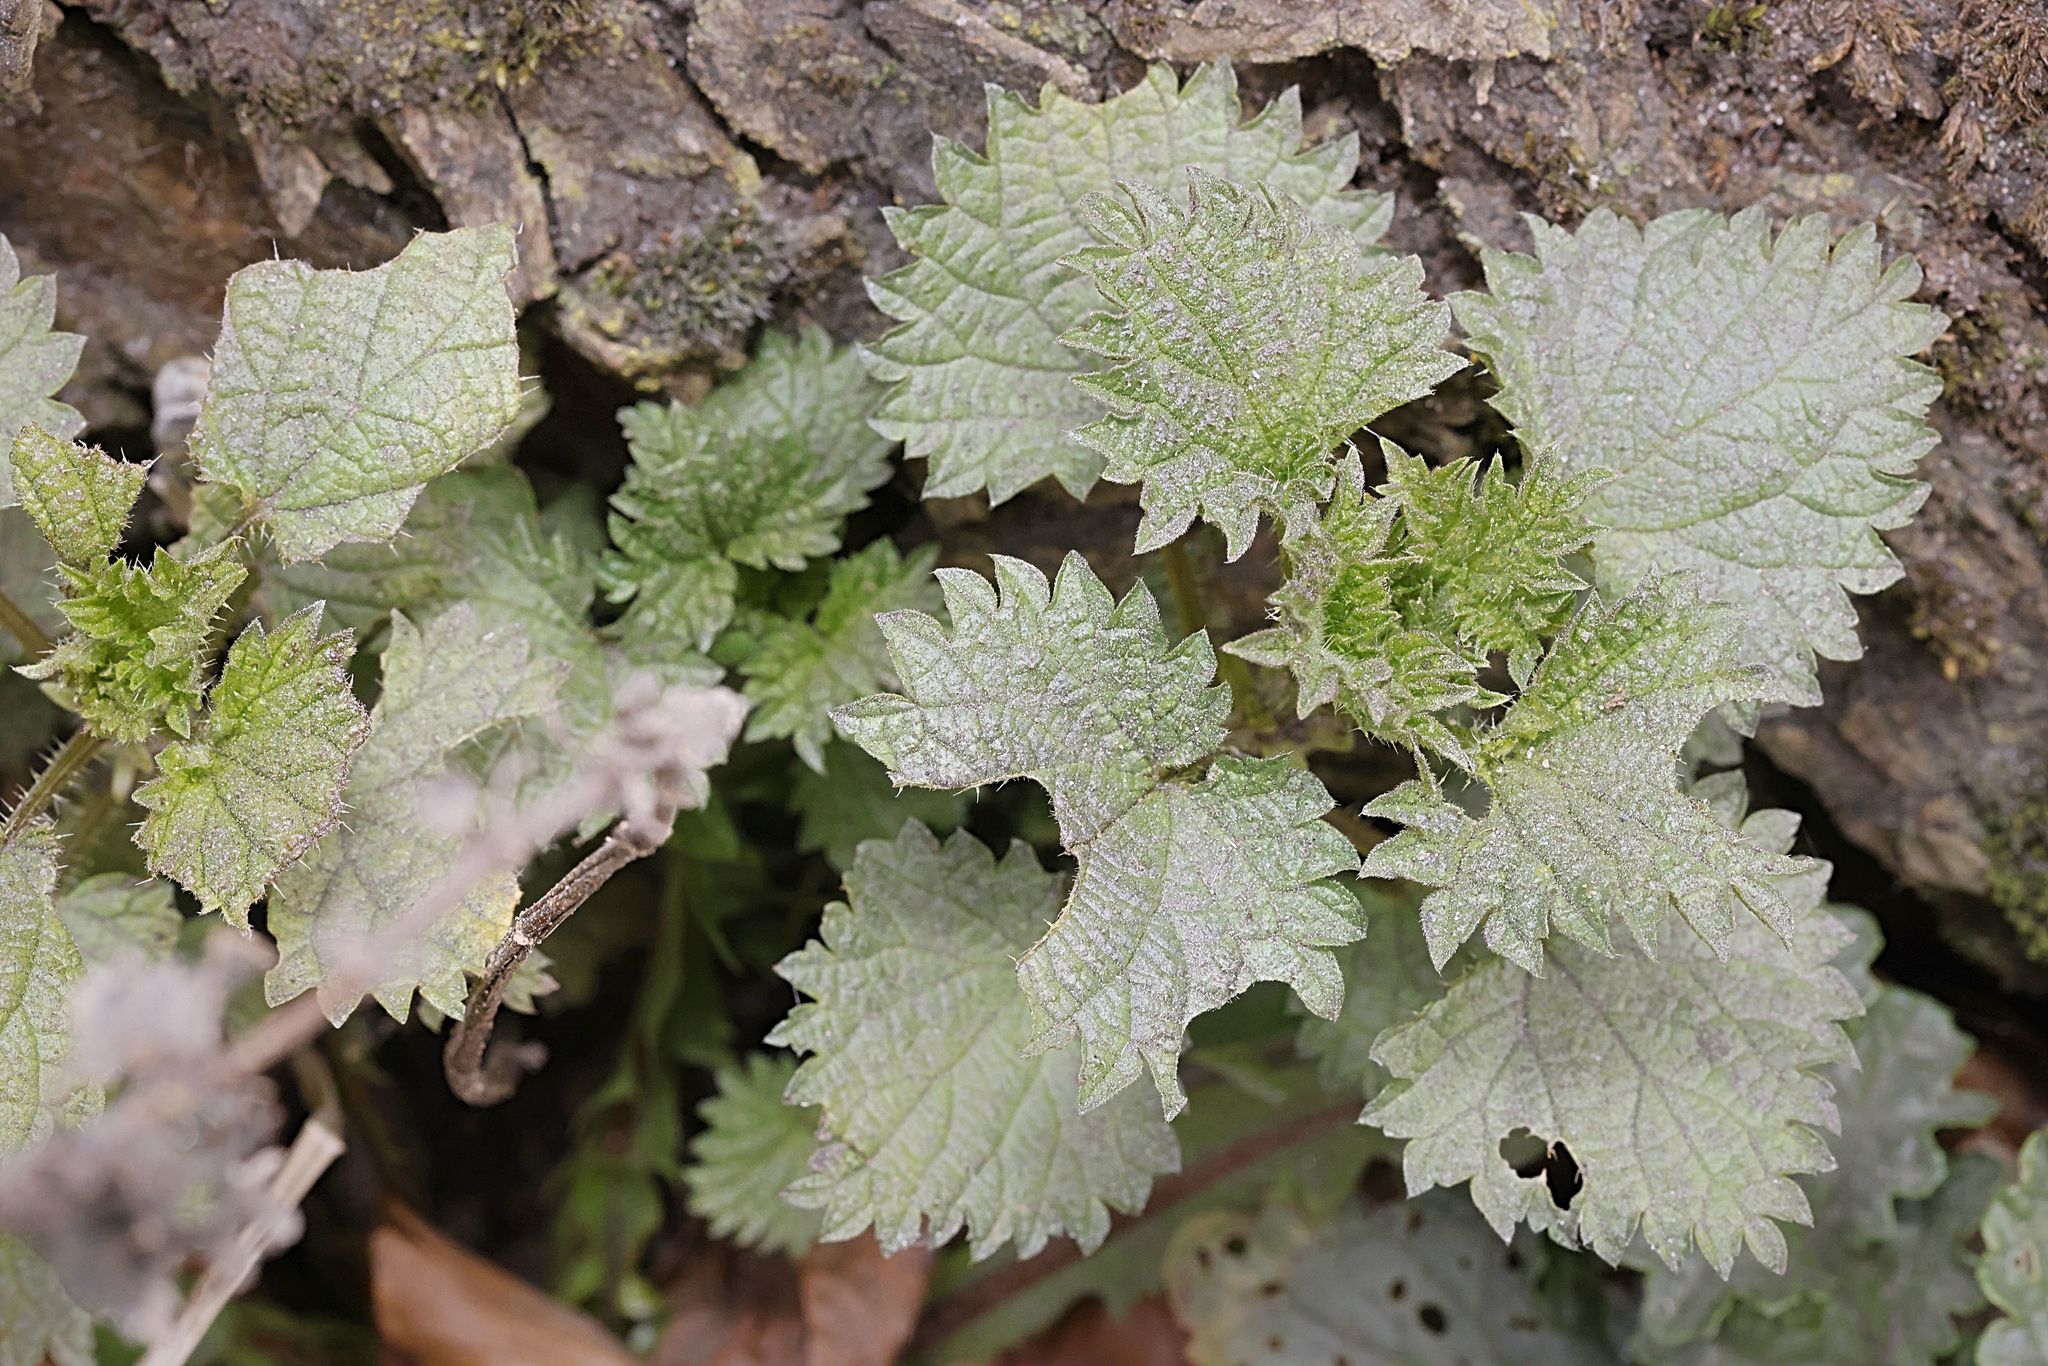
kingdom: Plantae
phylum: Tracheophyta
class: Magnoliopsida
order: Rosales
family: Urticaceae
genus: Urtica
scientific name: Urtica dioica
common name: Common nettle
